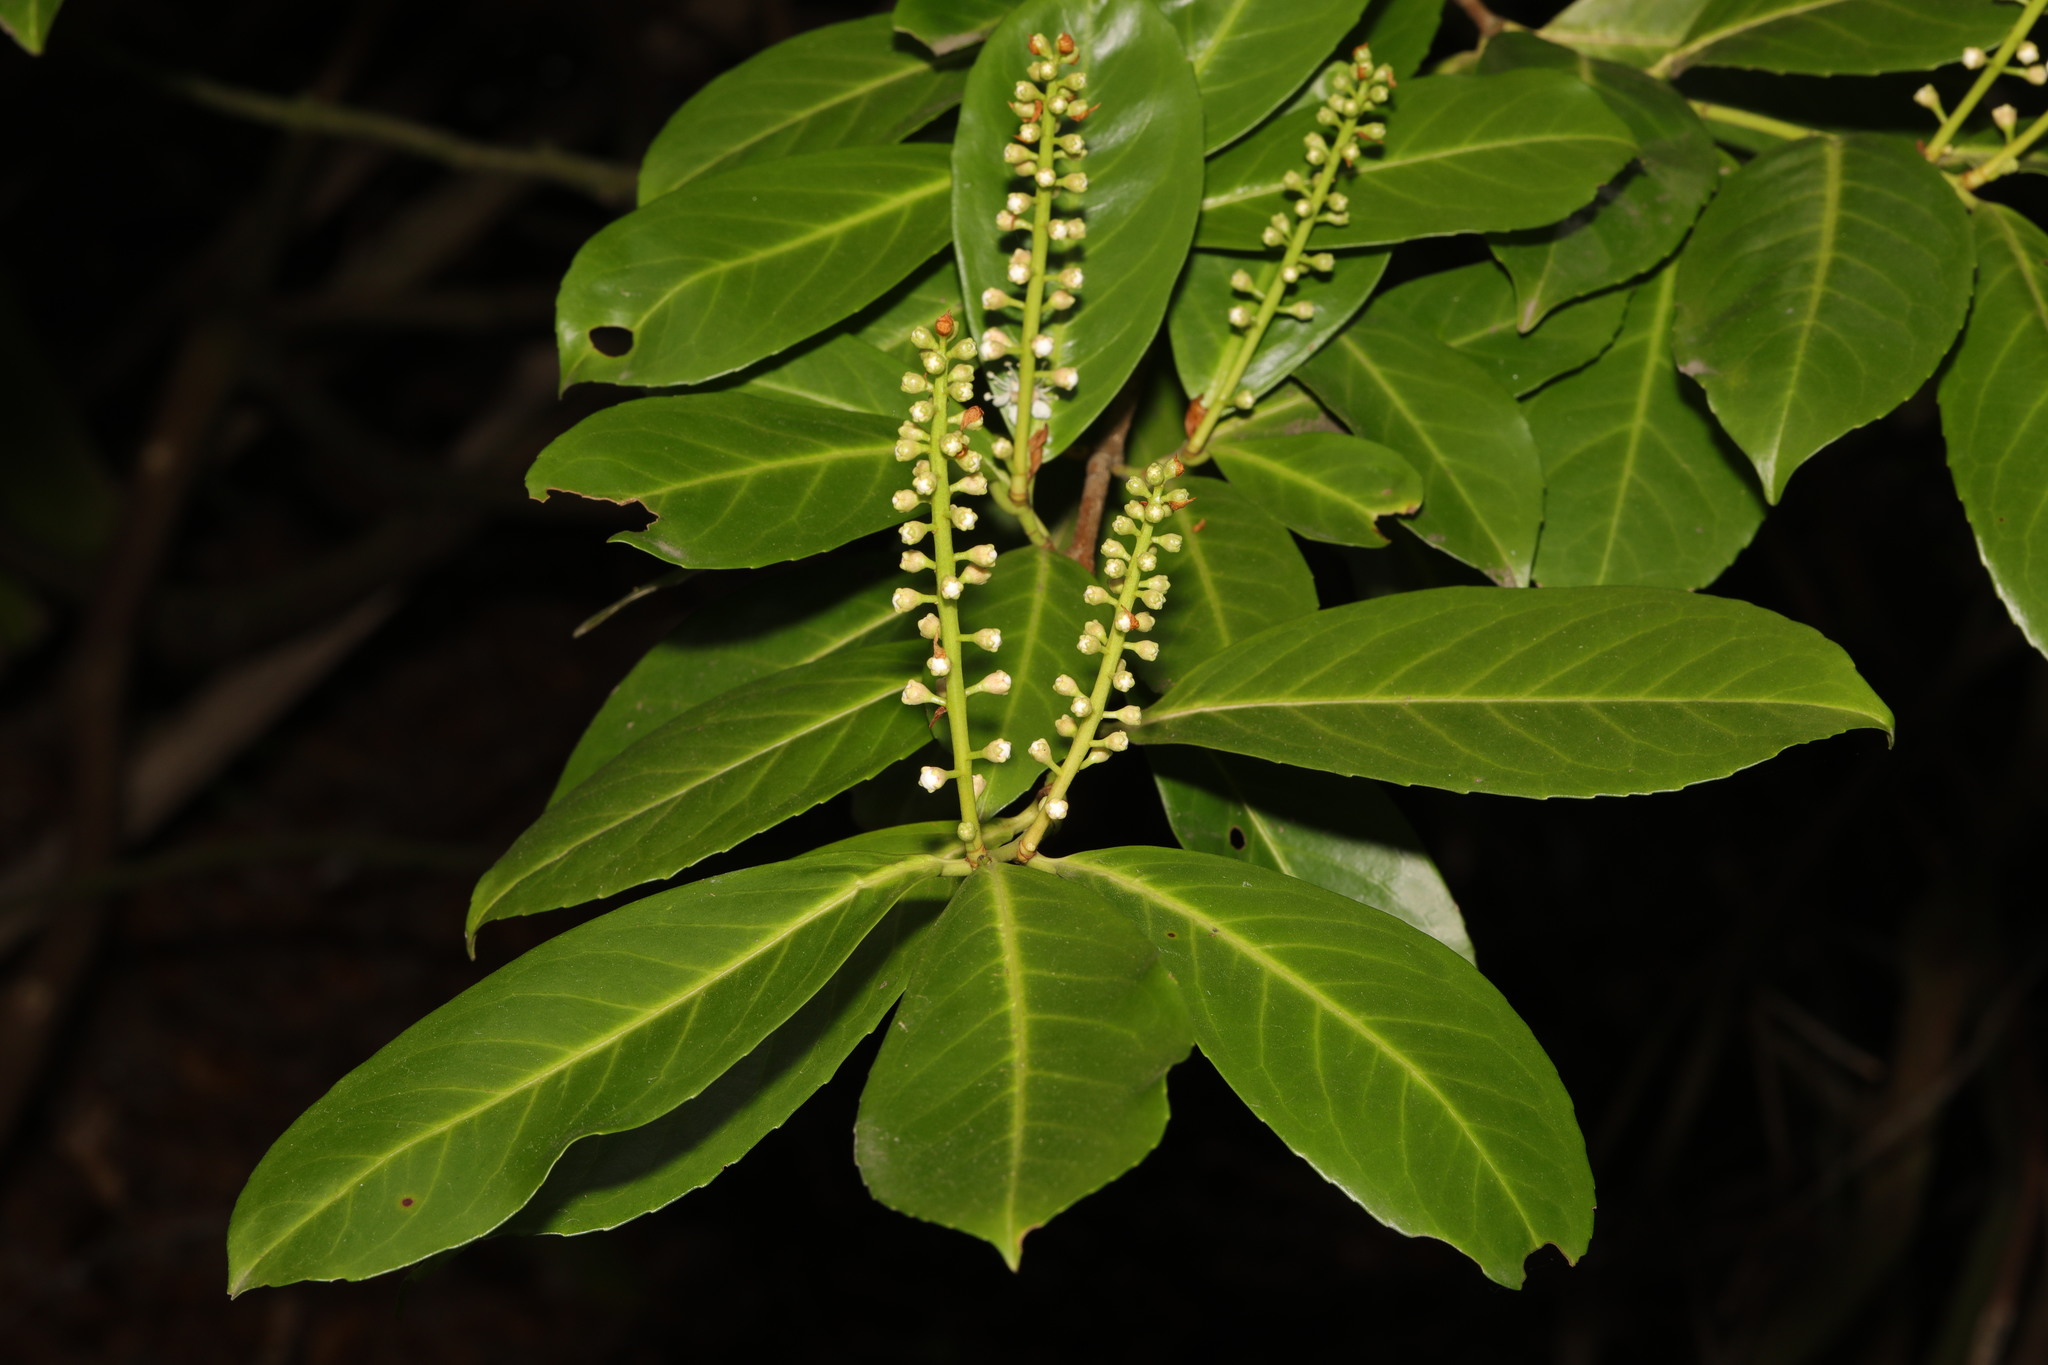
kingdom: Plantae
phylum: Tracheophyta
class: Magnoliopsida
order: Rosales
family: Rosaceae
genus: Prunus
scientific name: Prunus laurocerasus
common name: Cherry laurel
